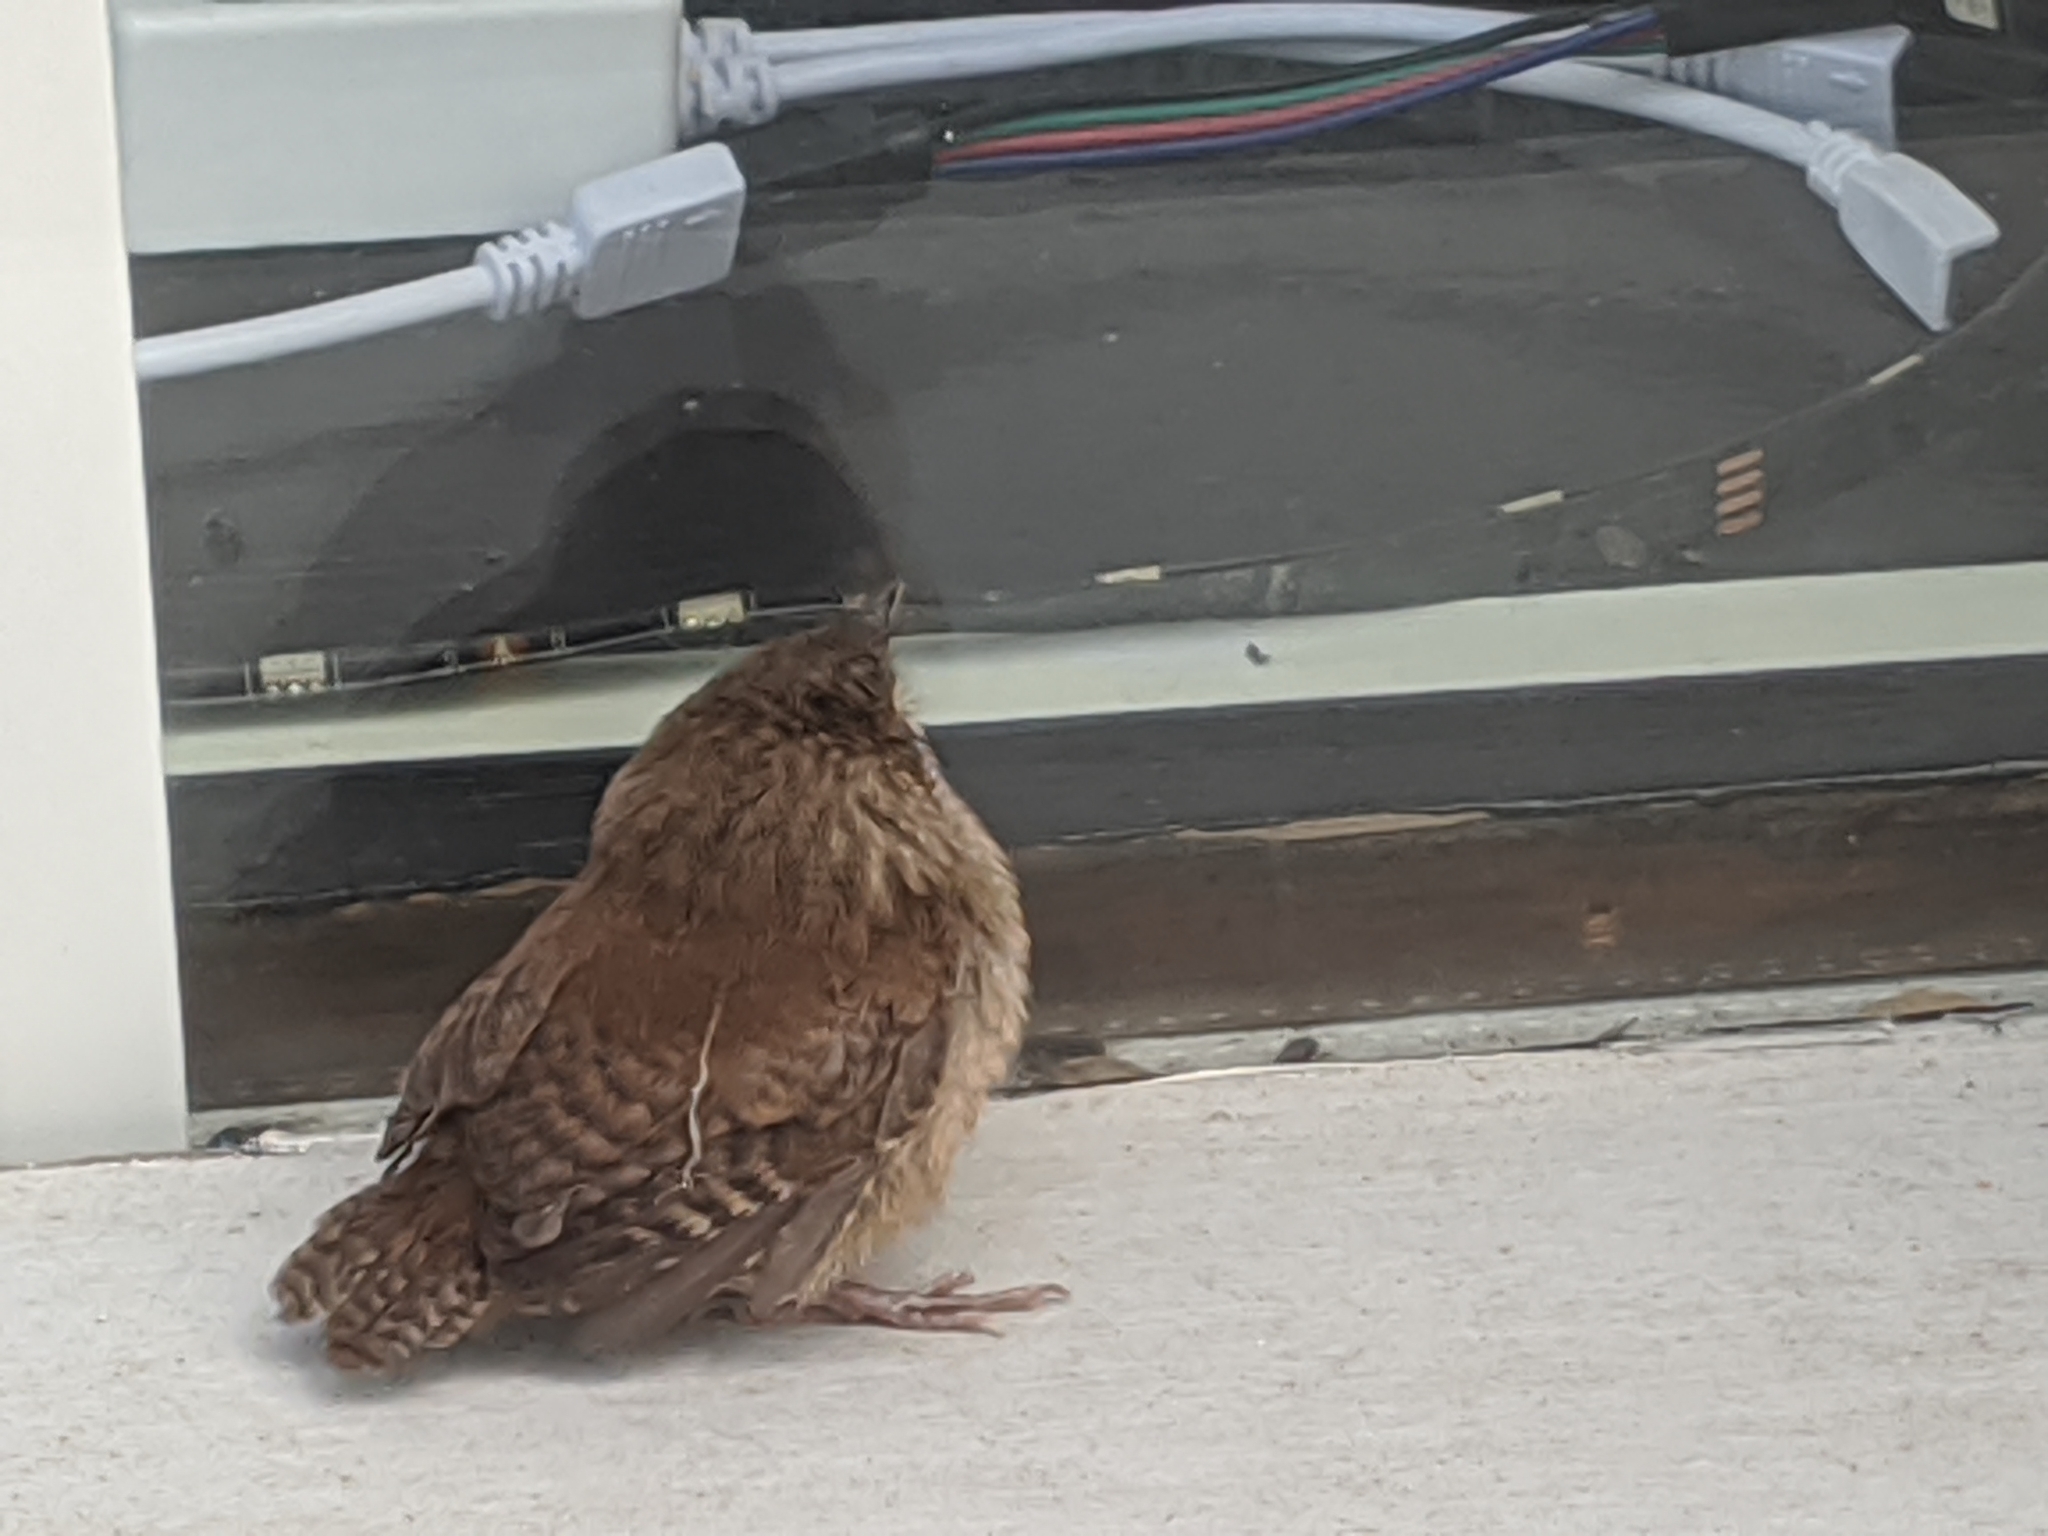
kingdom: Animalia
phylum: Chordata
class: Aves
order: Passeriformes
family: Troglodytidae
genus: Troglodytes
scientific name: Troglodytes aedon
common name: House wren
